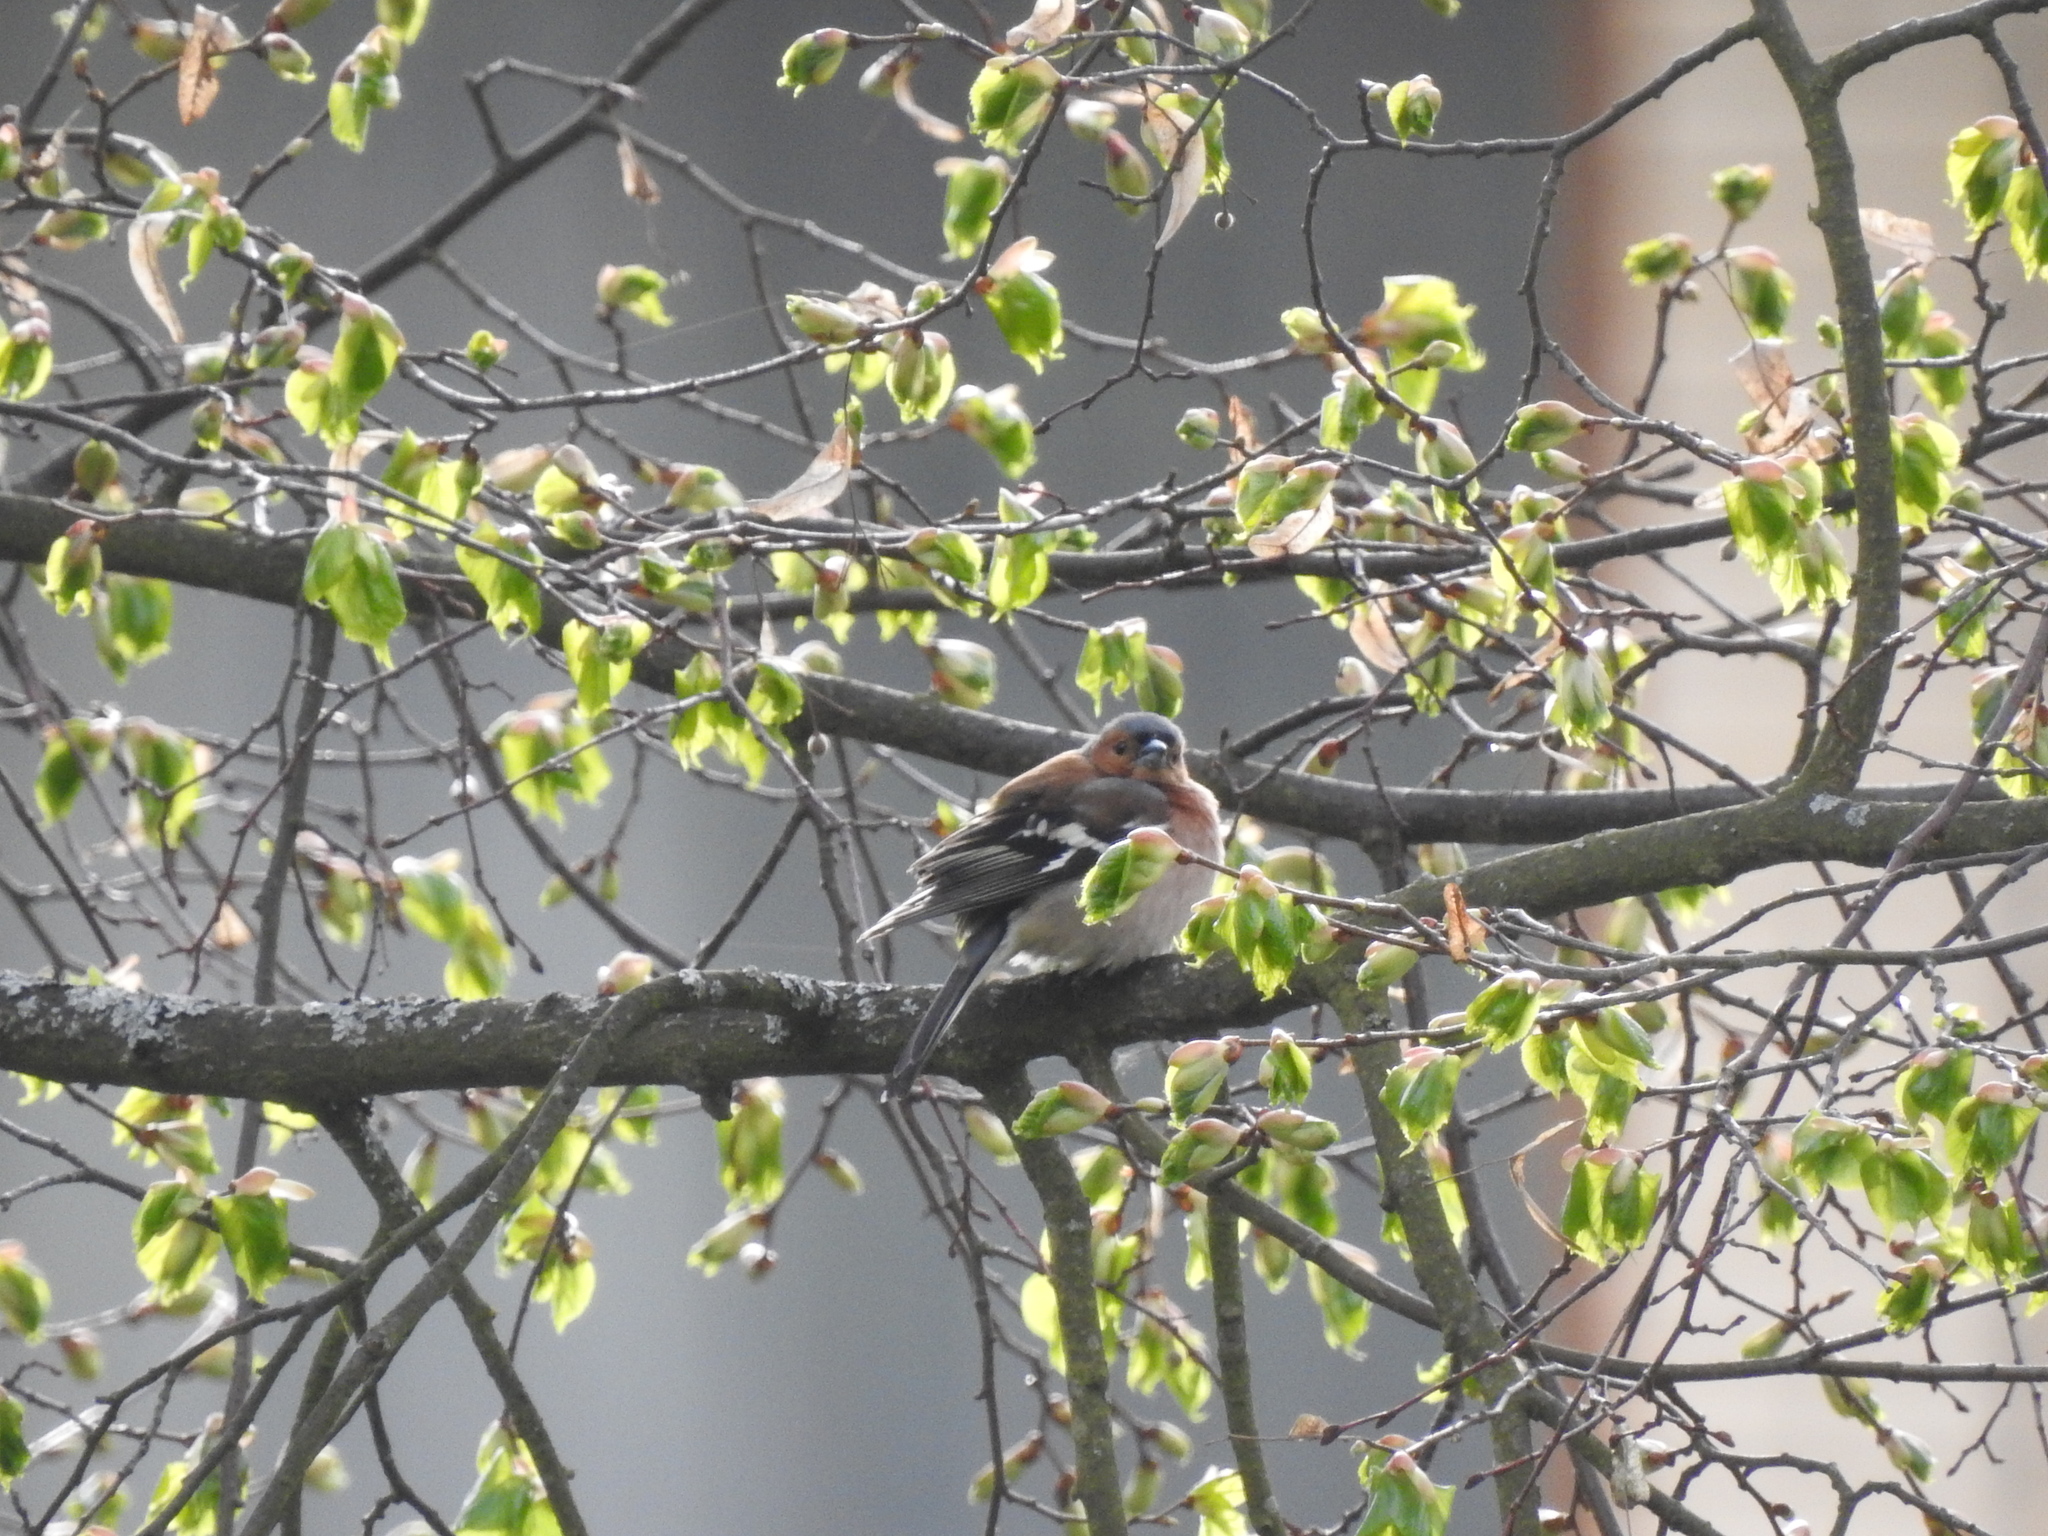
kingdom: Animalia
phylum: Chordata
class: Aves
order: Passeriformes
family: Fringillidae
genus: Fringilla
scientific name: Fringilla coelebs
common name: Common chaffinch
